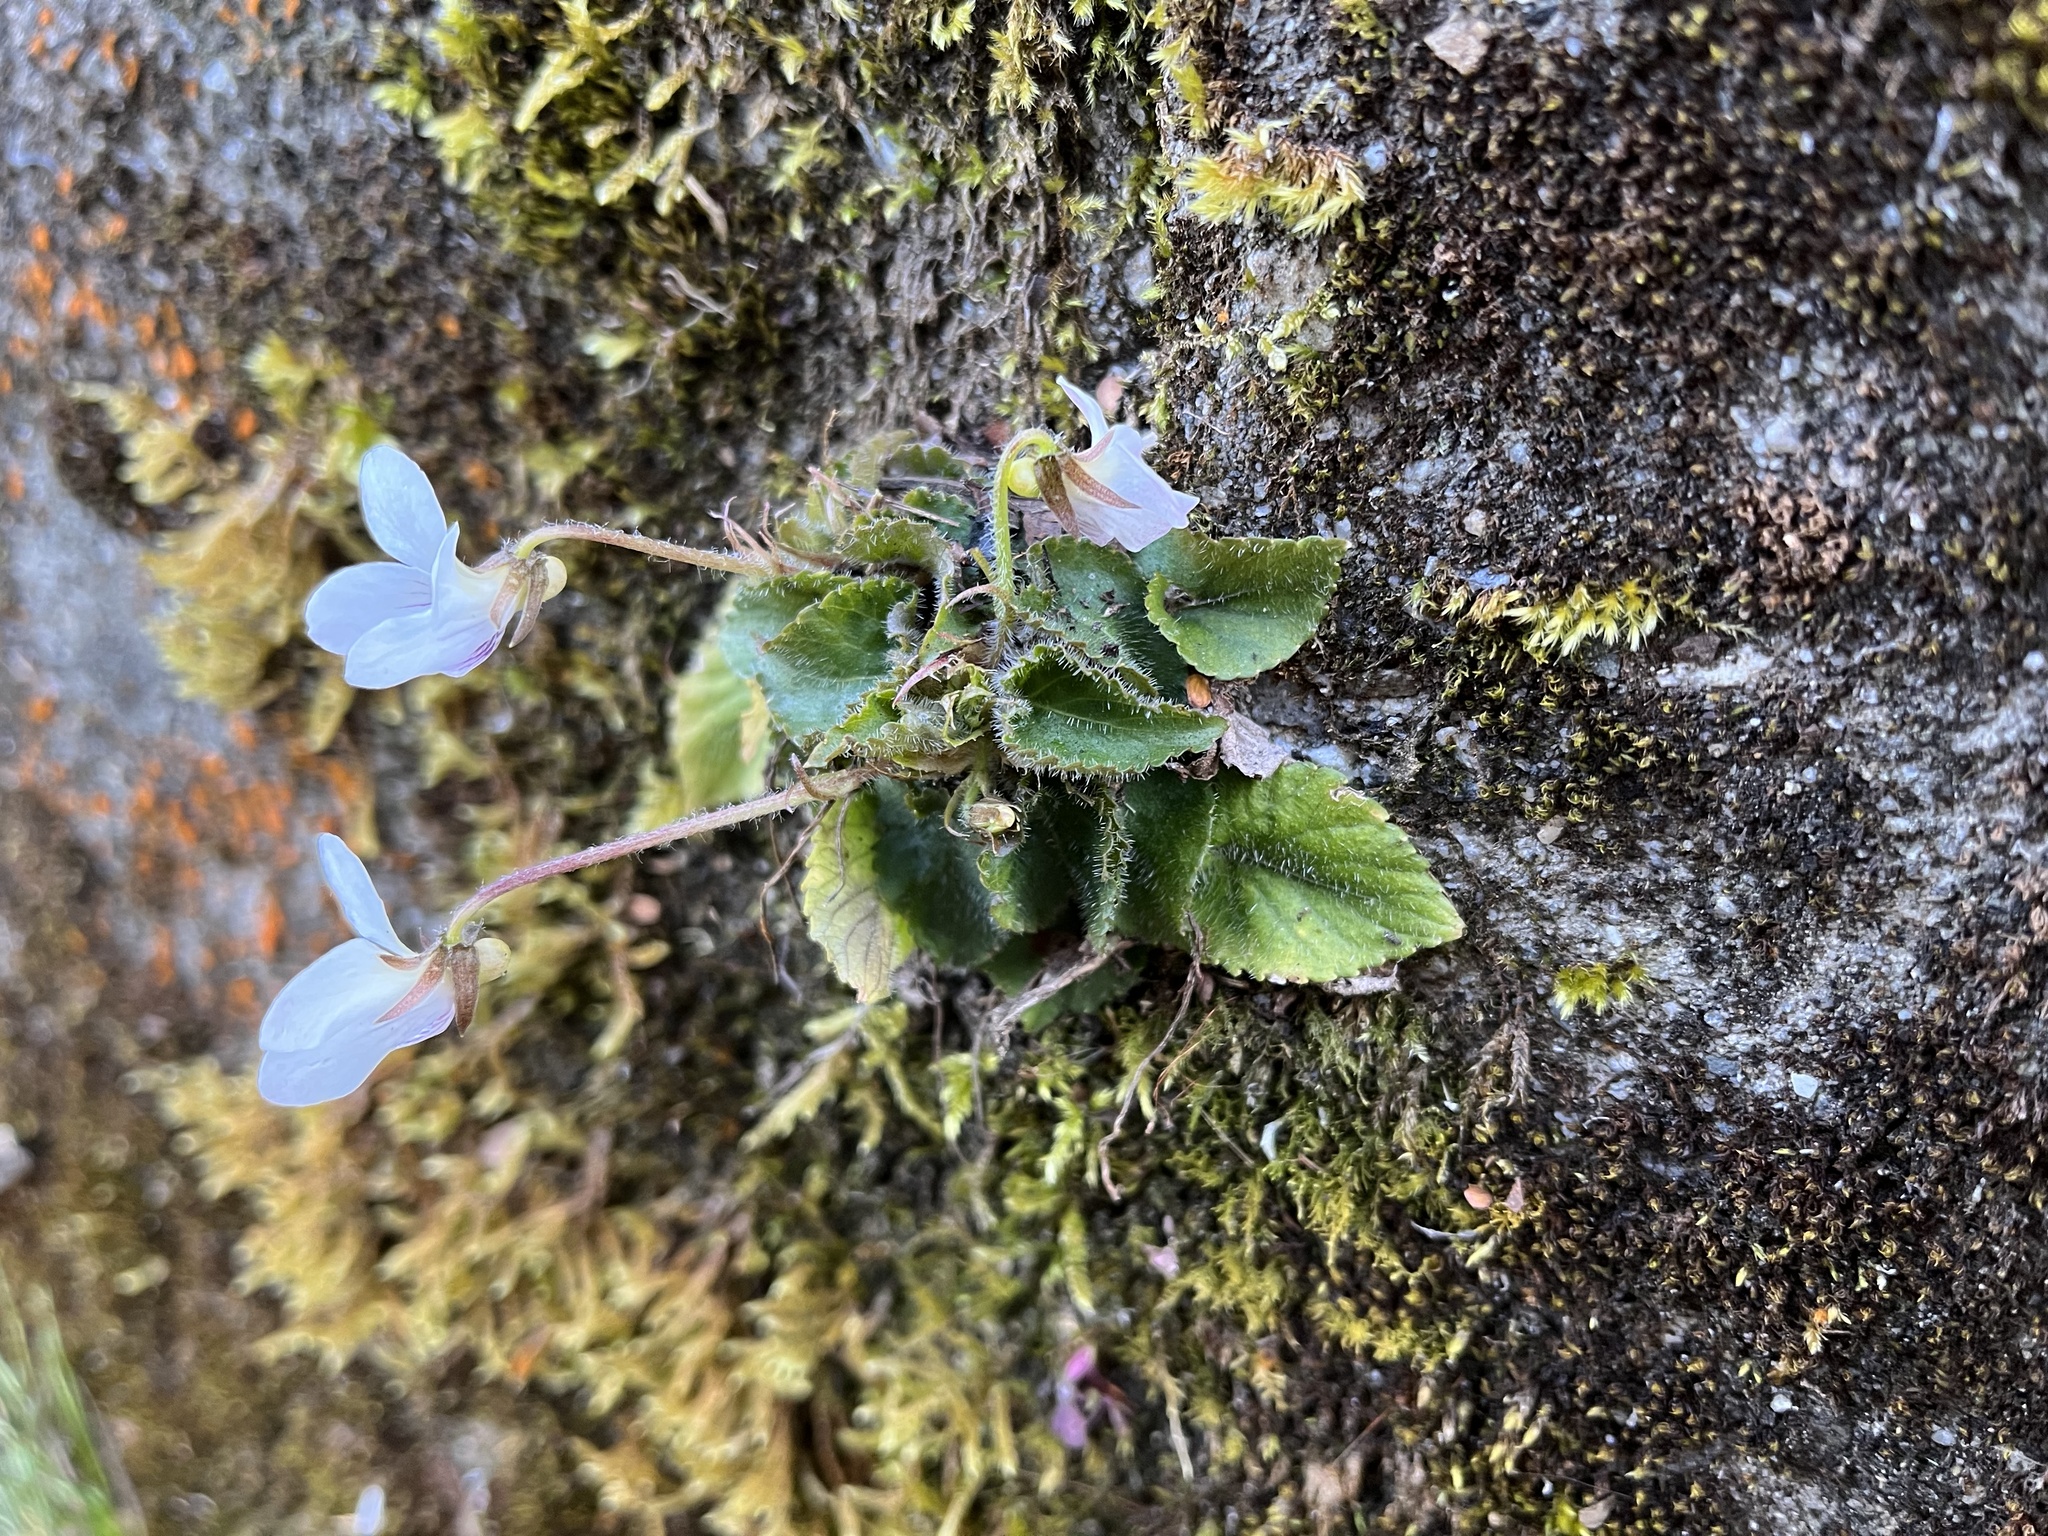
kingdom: Plantae
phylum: Tracheophyta
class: Magnoliopsida
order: Malpighiales
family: Violaceae
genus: Viola
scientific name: Viola adenothrix
